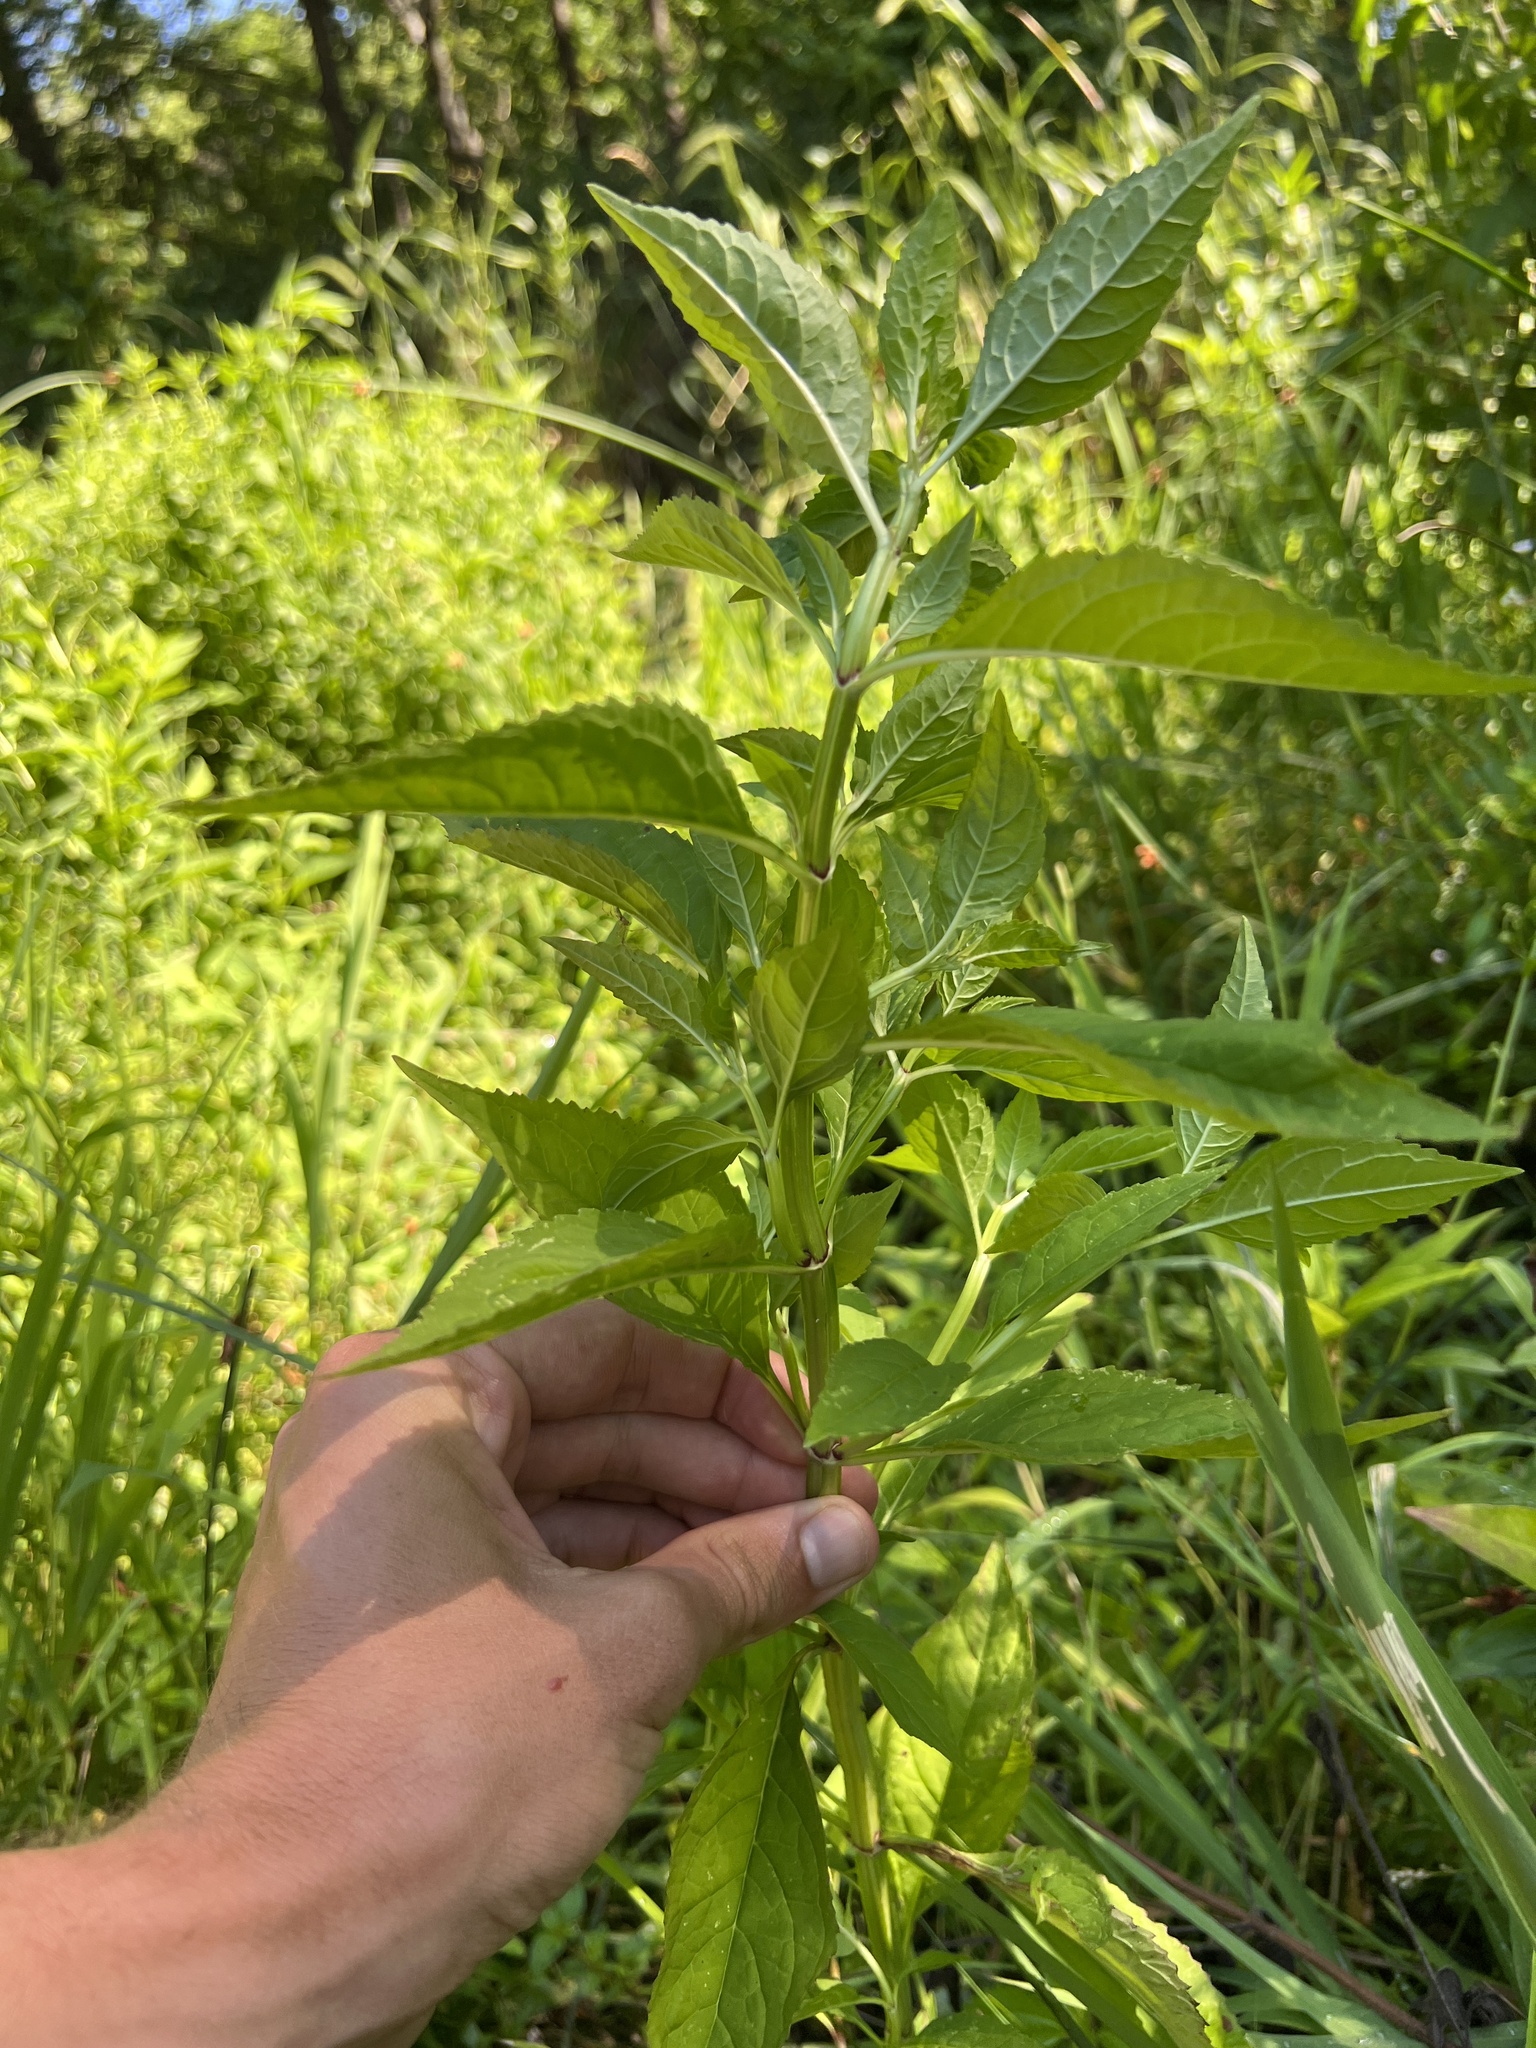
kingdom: Plantae
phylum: Tracheophyta
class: Magnoliopsida
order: Lamiales
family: Phrymaceae
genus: Mimulus
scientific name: Mimulus alatus
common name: Sharp-wing monkey-flower
